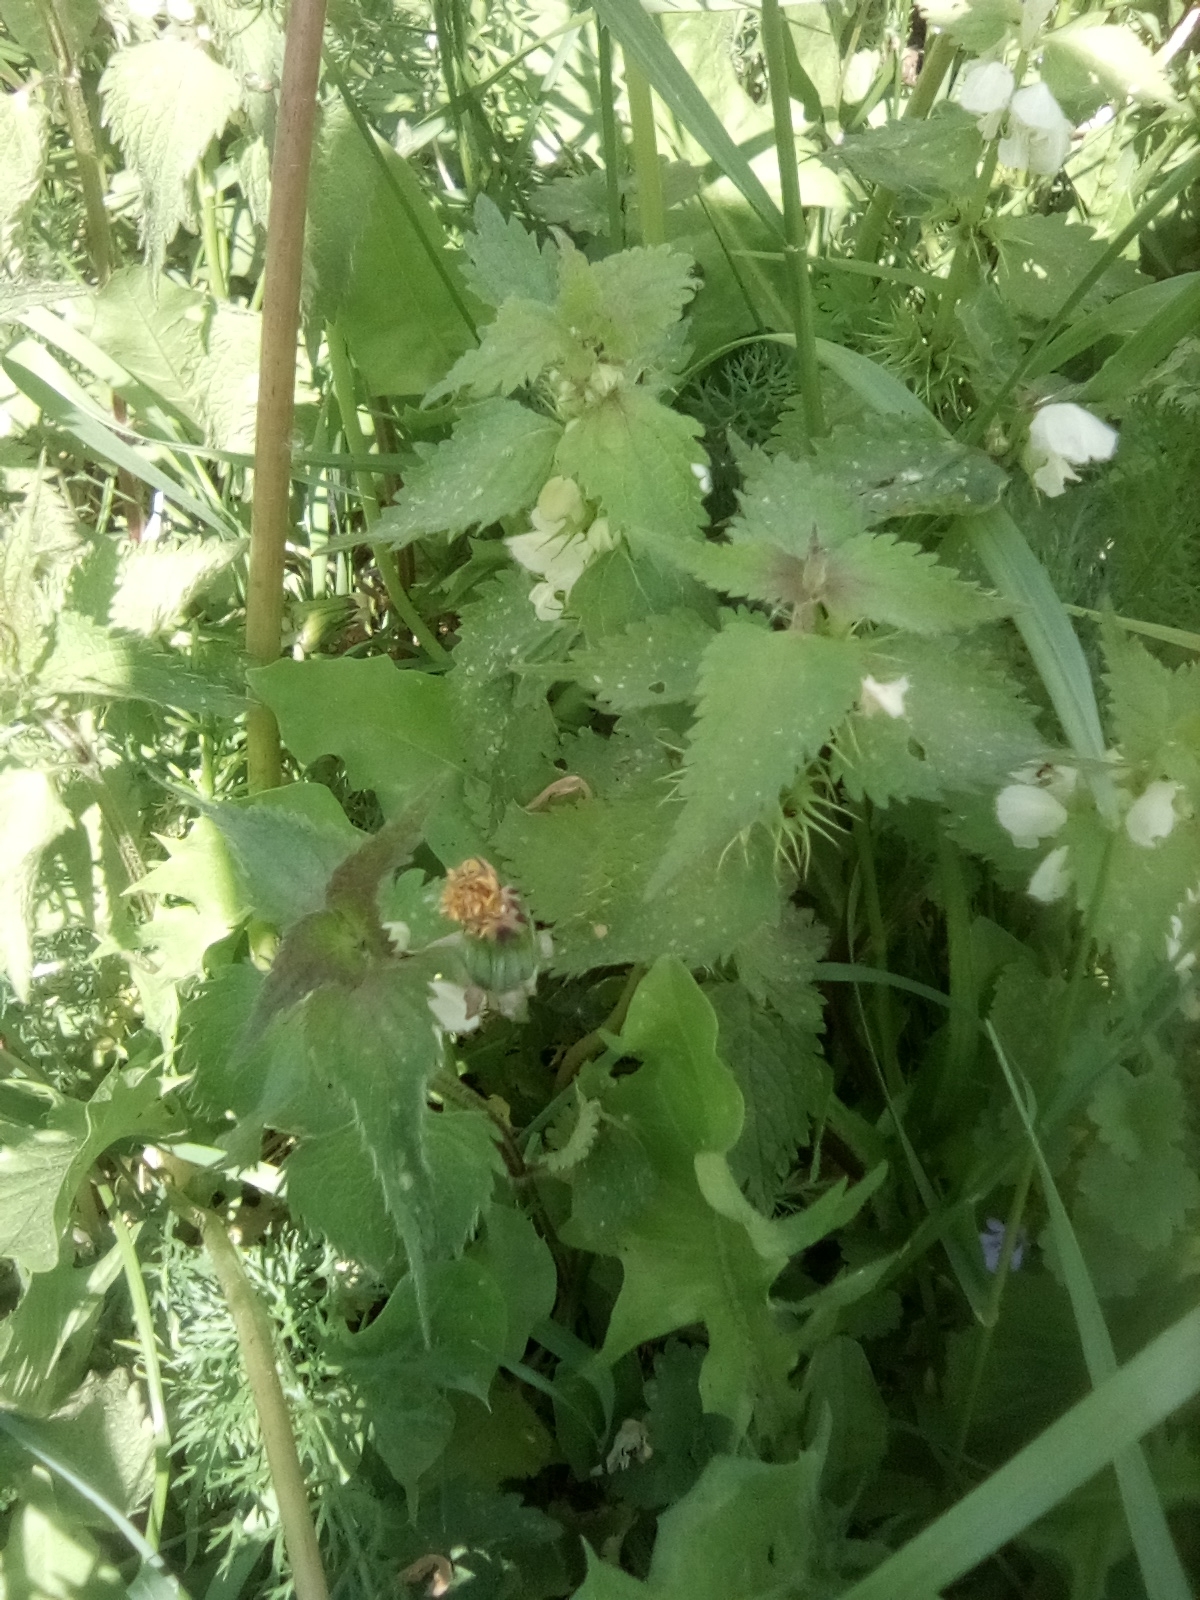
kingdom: Plantae
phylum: Tracheophyta
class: Magnoliopsida
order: Lamiales
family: Lamiaceae
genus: Lamium
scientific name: Lamium album
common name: White dead-nettle
